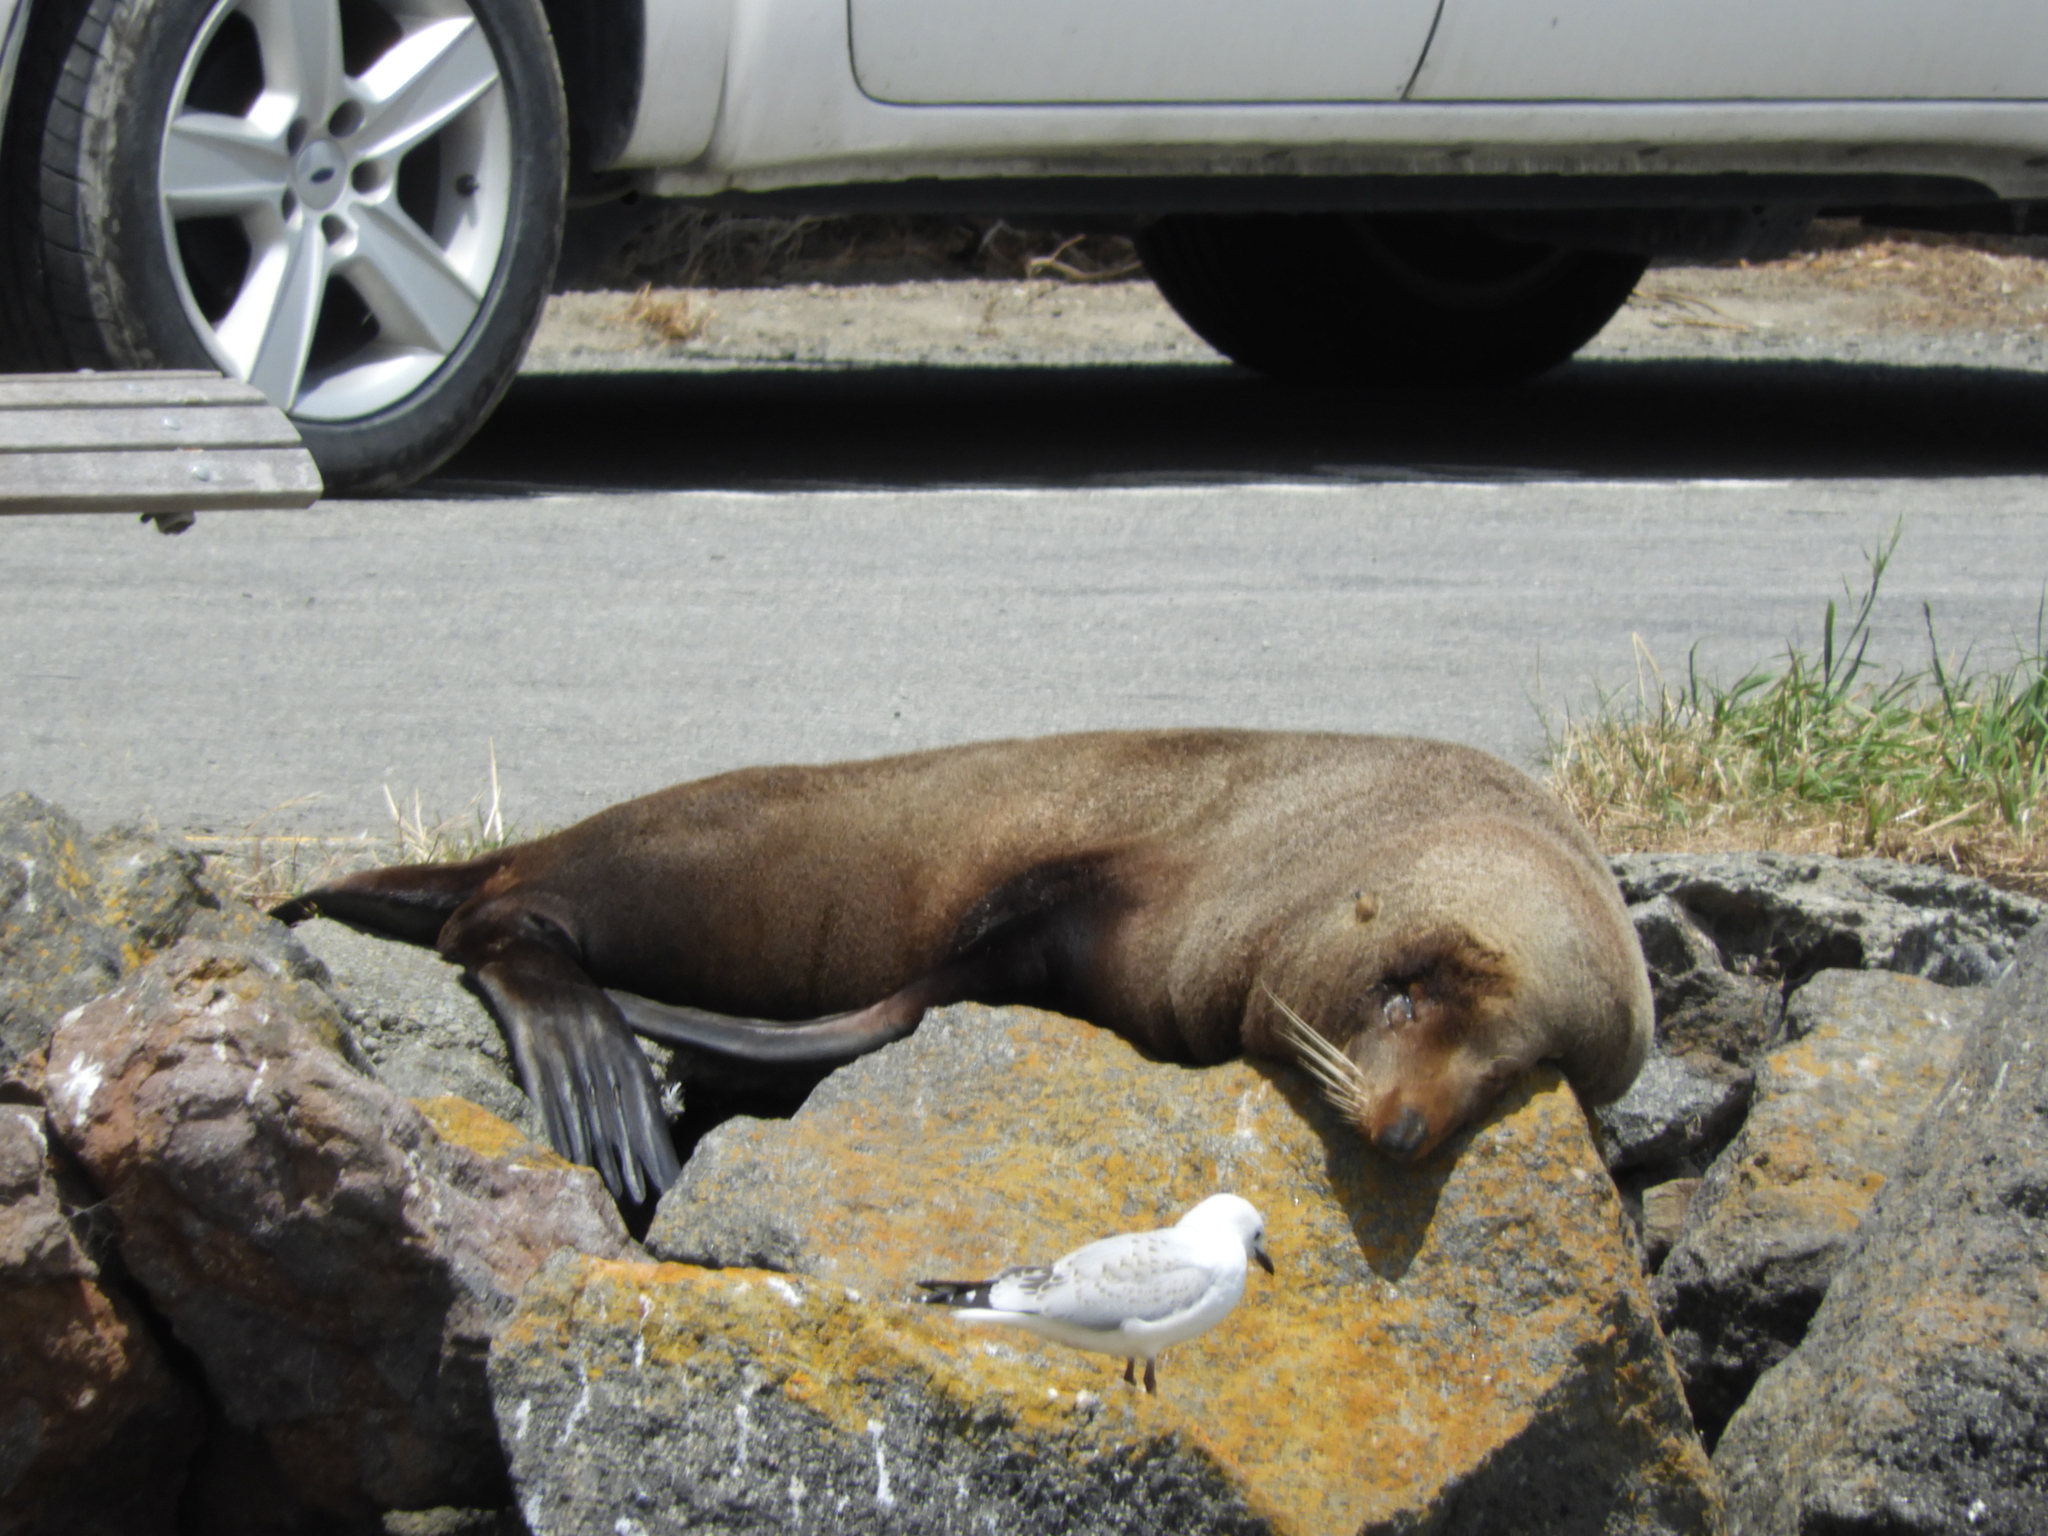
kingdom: Animalia
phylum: Chordata
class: Mammalia
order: Carnivora
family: Otariidae
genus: Arctocephalus
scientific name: Arctocephalus forsteri
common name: New zealand fur seal
